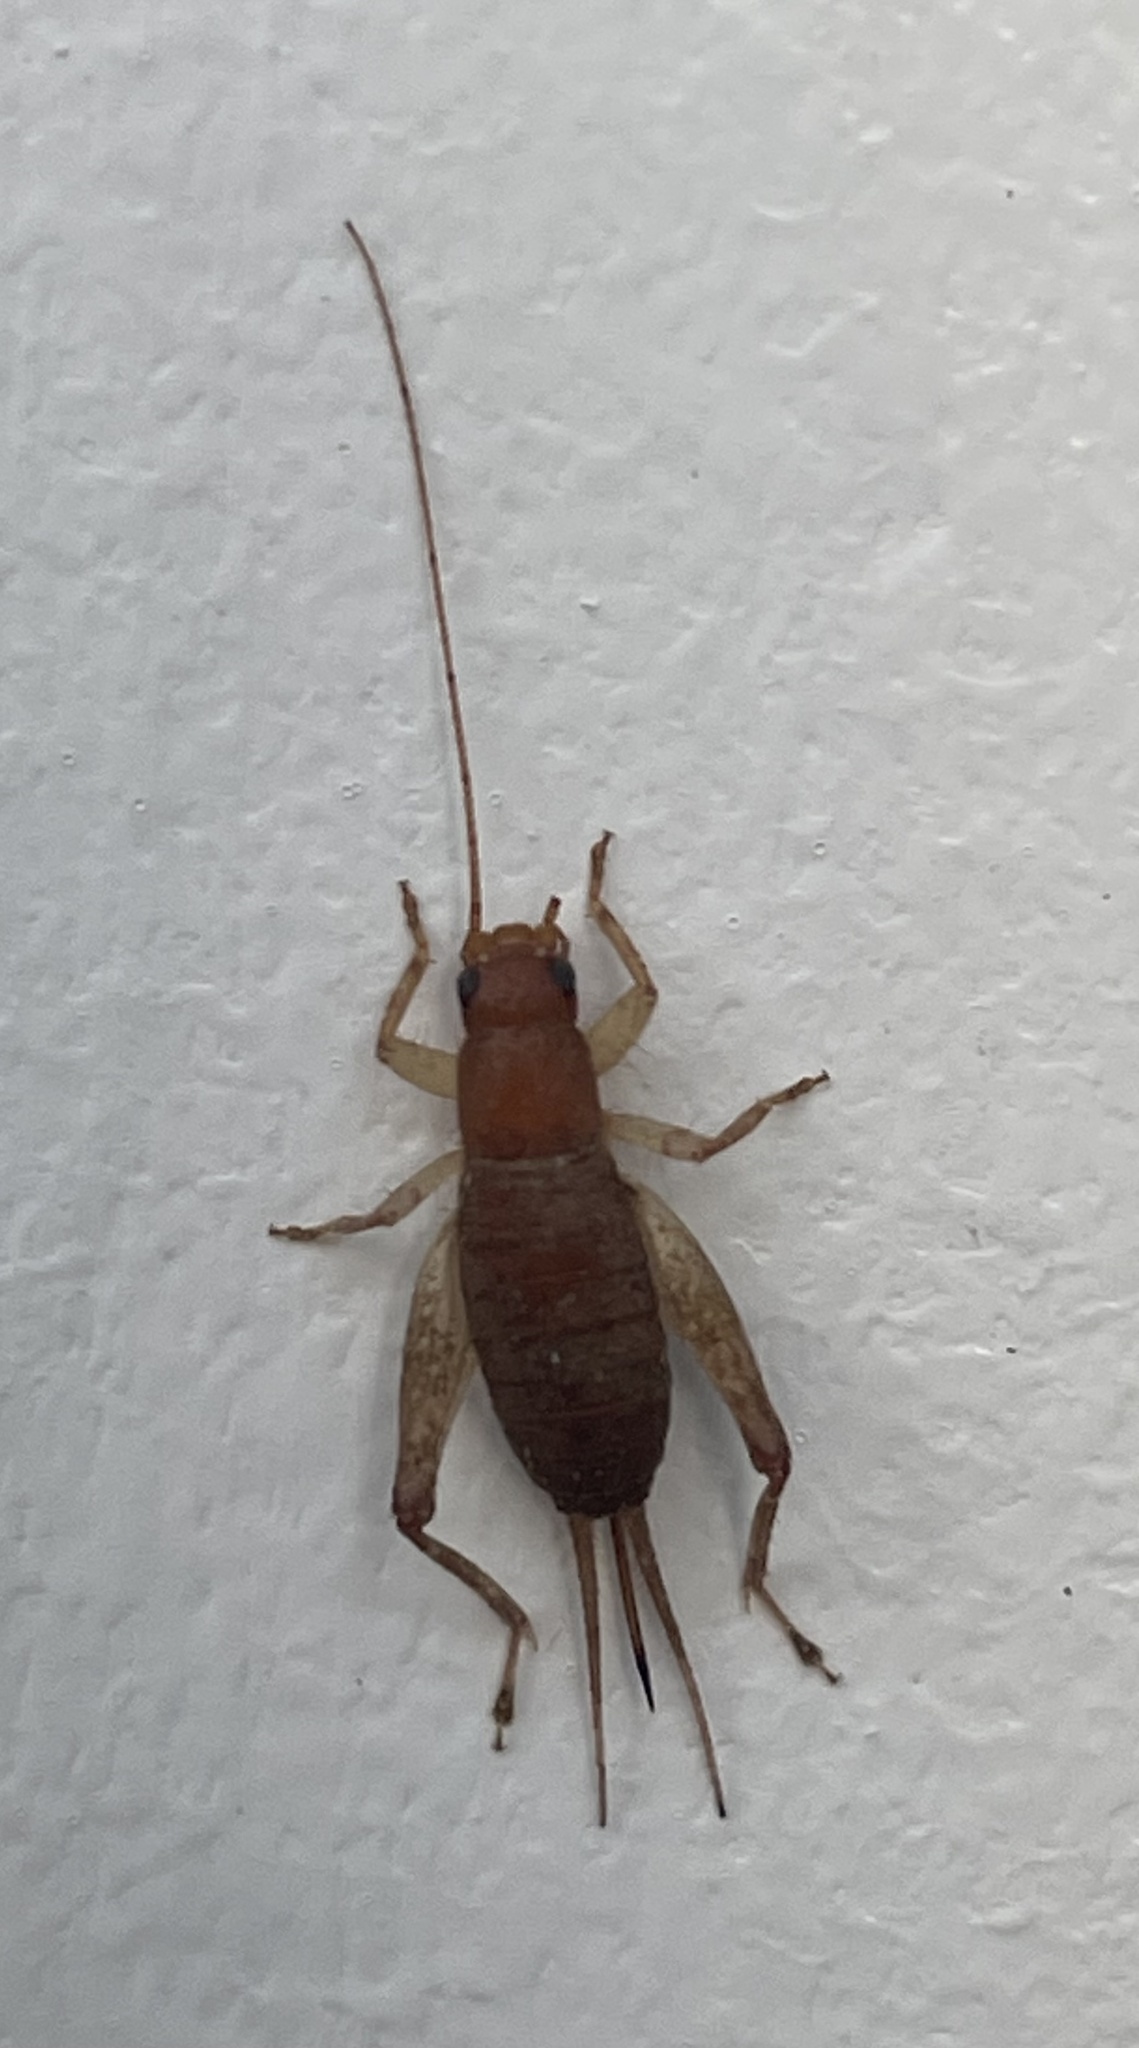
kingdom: Animalia
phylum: Arthropoda
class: Insecta
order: Orthoptera
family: Mogoplistidae
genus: Ornebius
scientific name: Ornebius aperta
